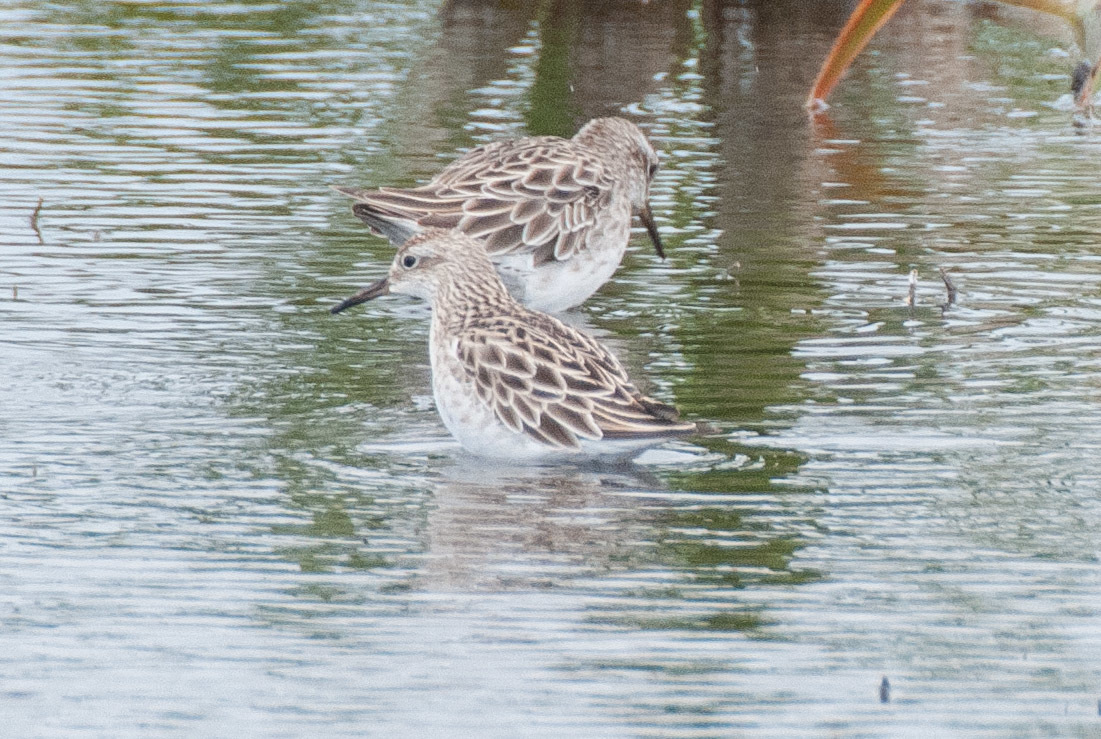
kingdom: Animalia
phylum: Chordata
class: Aves
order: Charadriiformes
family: Scolopacidae
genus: Calidris
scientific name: Calidris acuminata
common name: Sharp-tailed sandpiper
